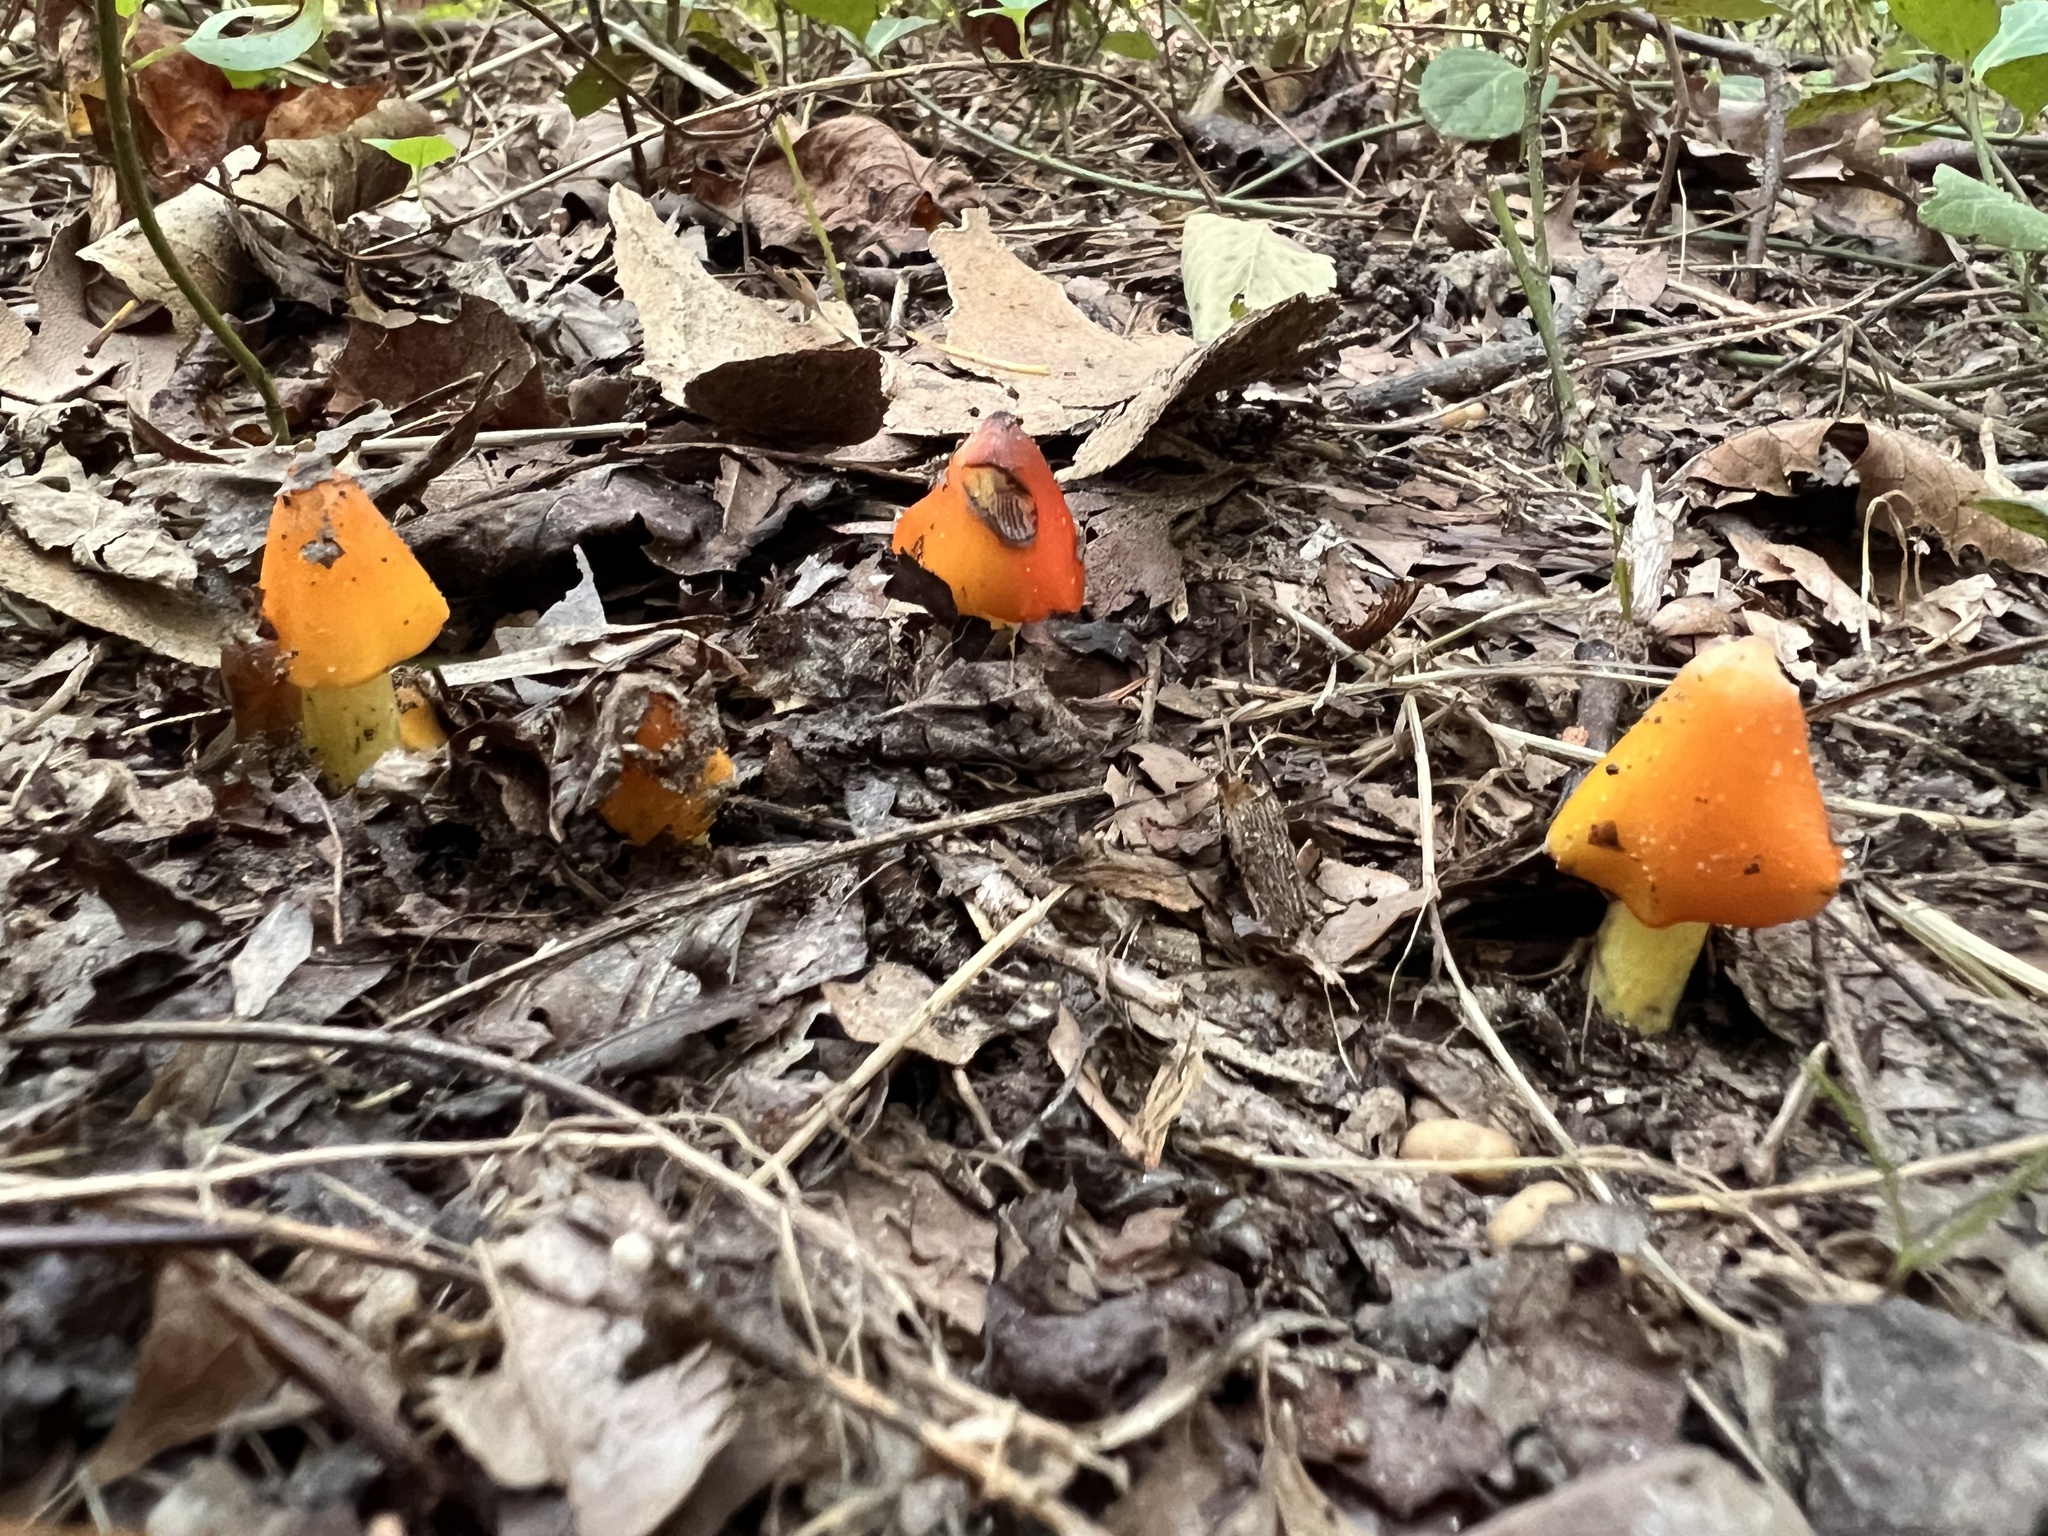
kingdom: Fungi
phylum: Basidiomycota
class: Agaricomycetes
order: Agaricales
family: Hygrophoraceae
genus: Hygrocybe
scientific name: Hygrocybe conica
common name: Blackening wax-cap
